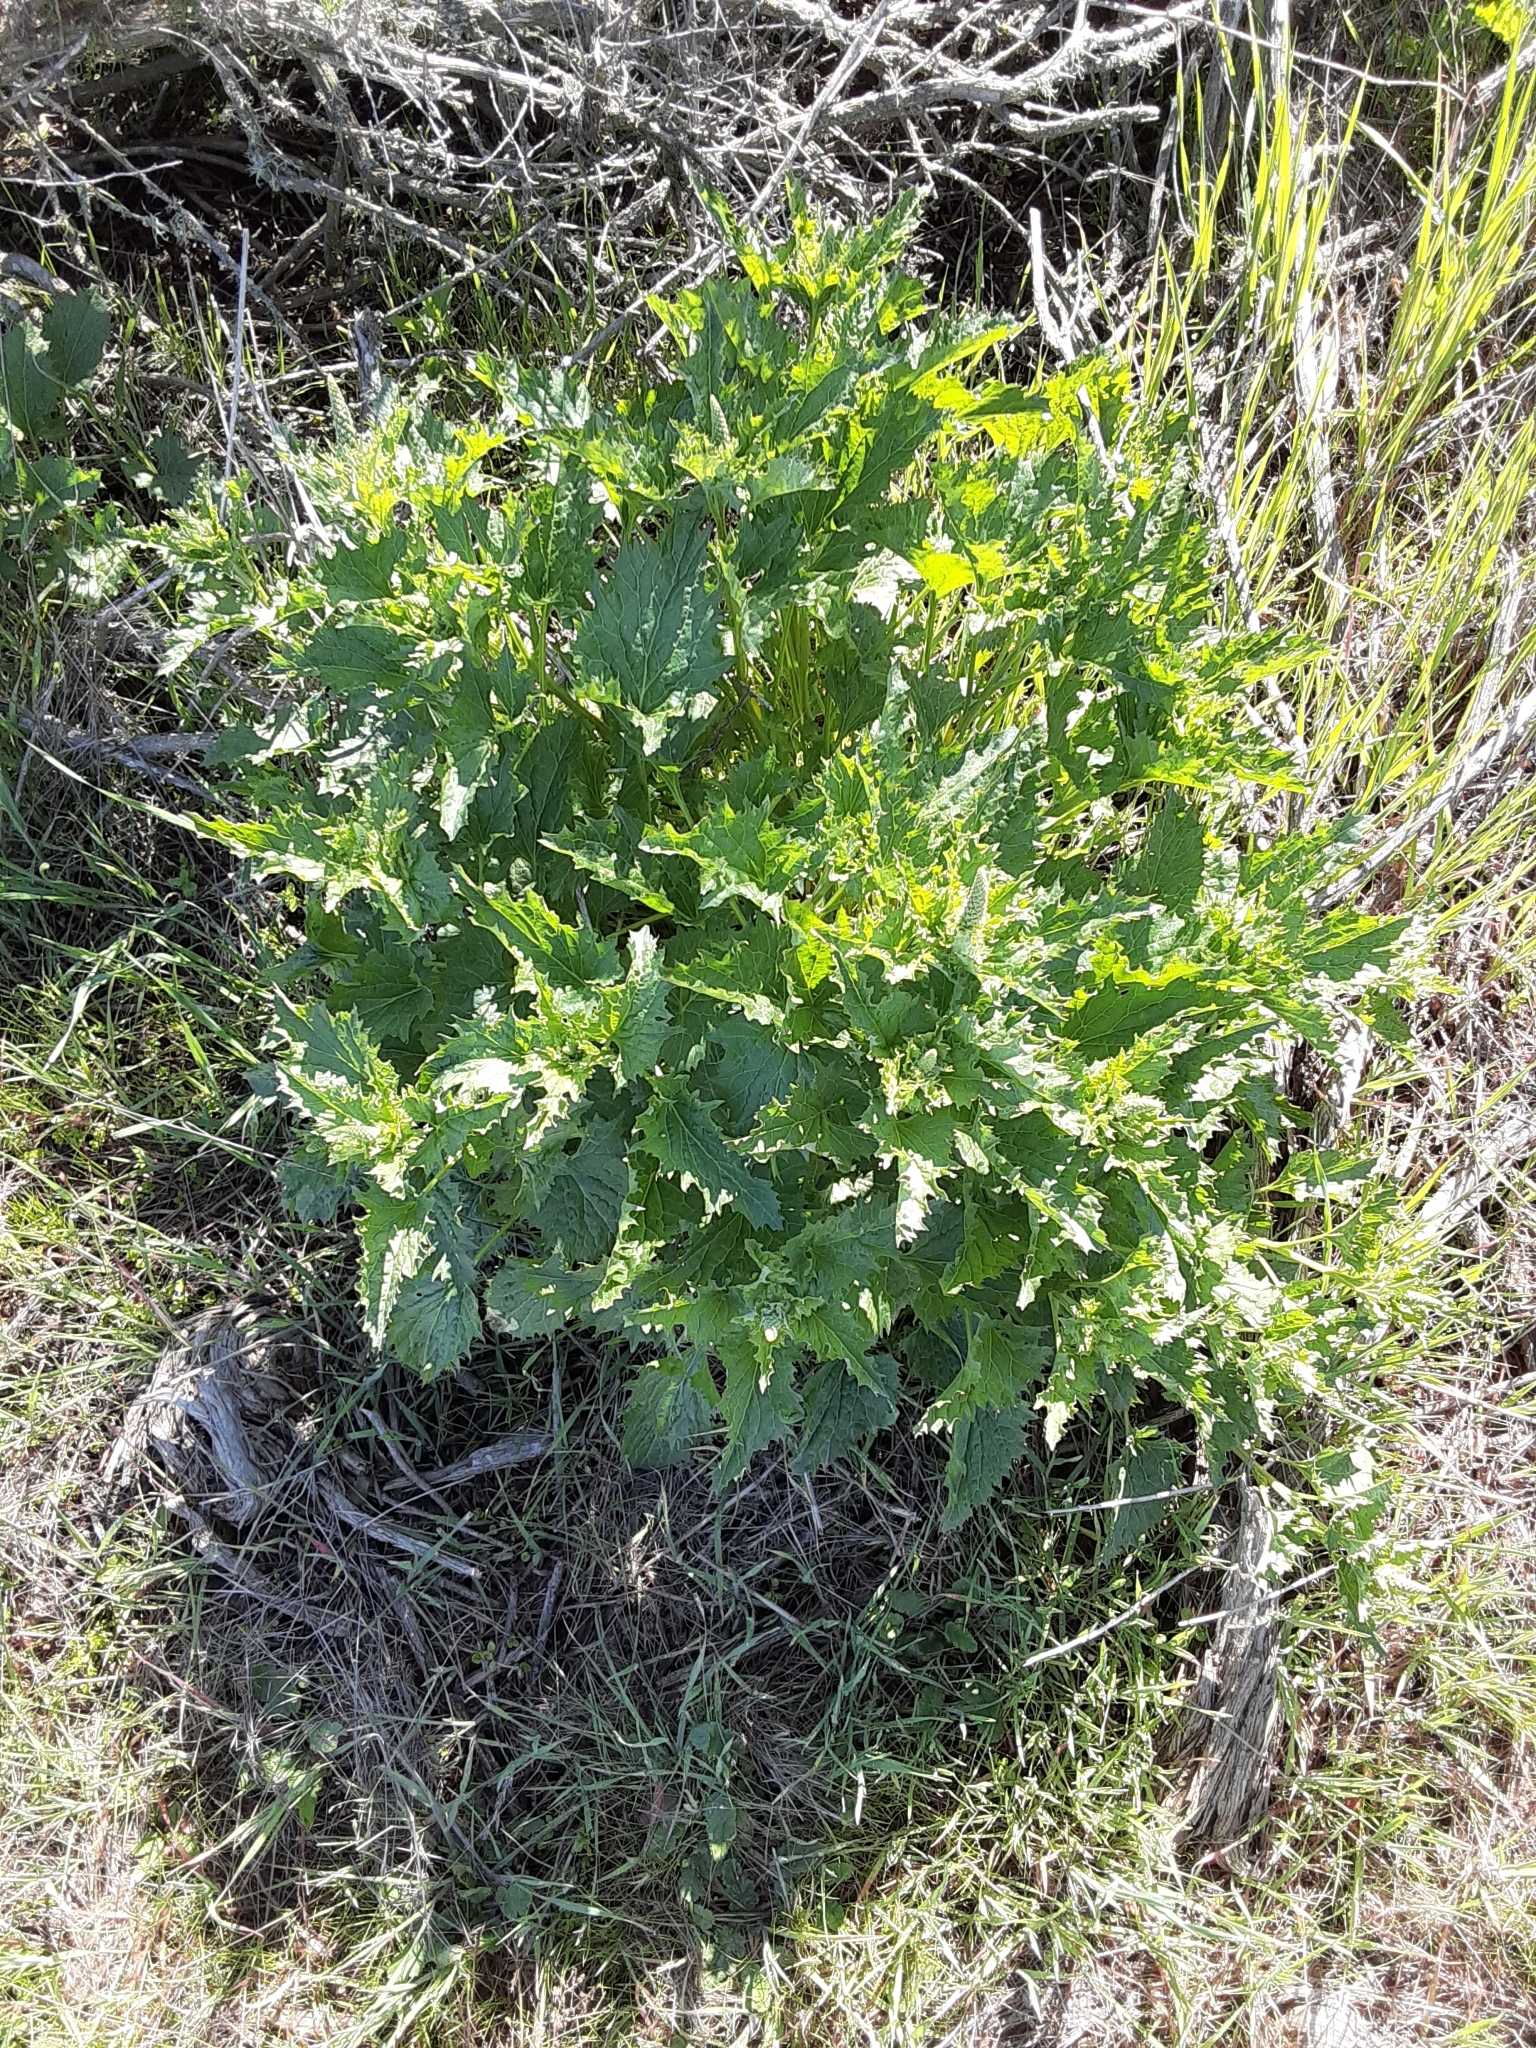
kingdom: Plantae
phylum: Tracheophyta
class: Magnoliopsida
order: Caryophyllales
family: Amaranthaceae
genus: Blitum
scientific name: Blitum californicum
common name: California goosefoot
